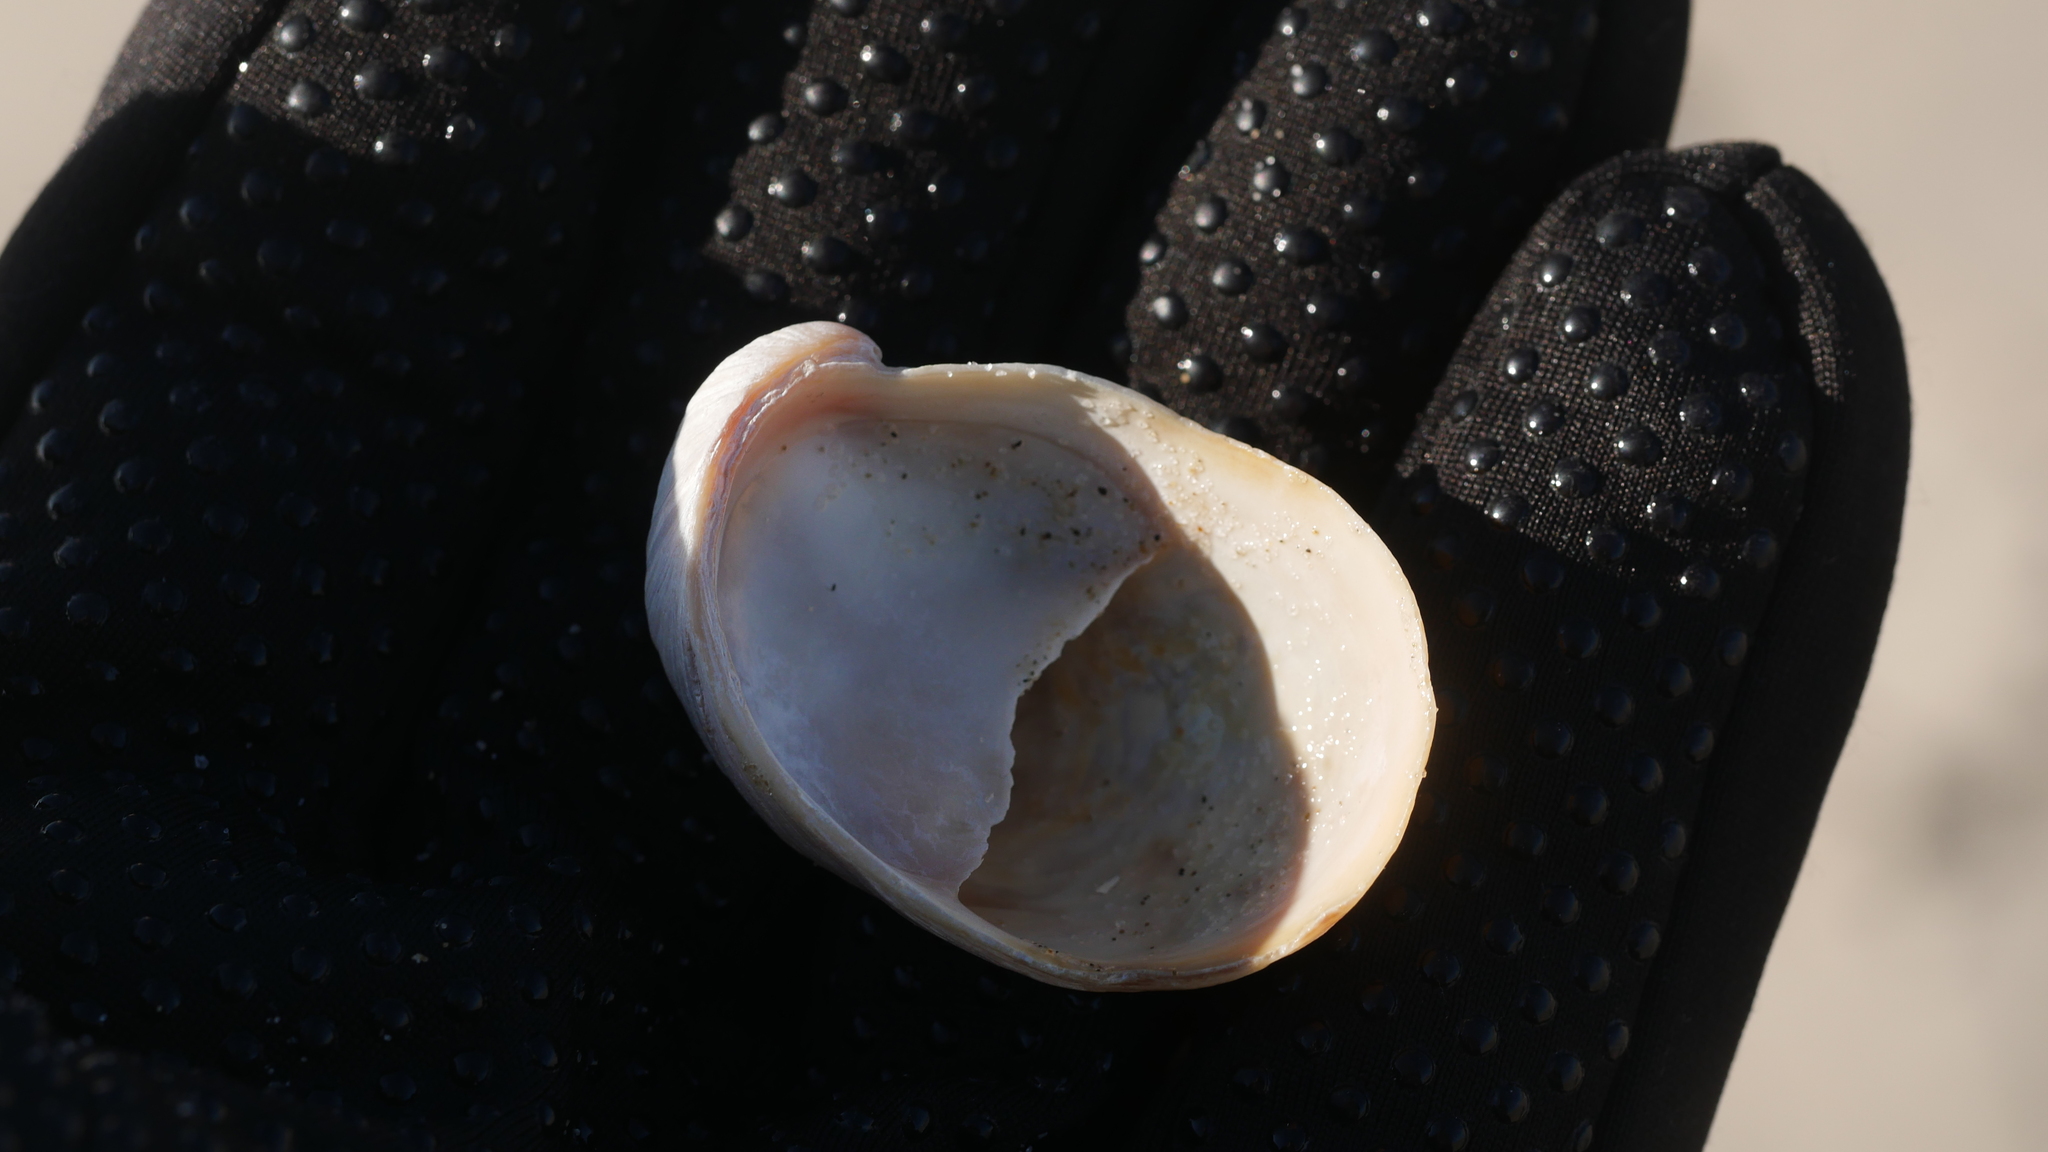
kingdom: Animalia
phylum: Mollusca
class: Gastropoda
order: Littorinimorpha
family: Calyptraeidae
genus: Crepidula
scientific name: Crepidula fornicata
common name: Slipper limpet
